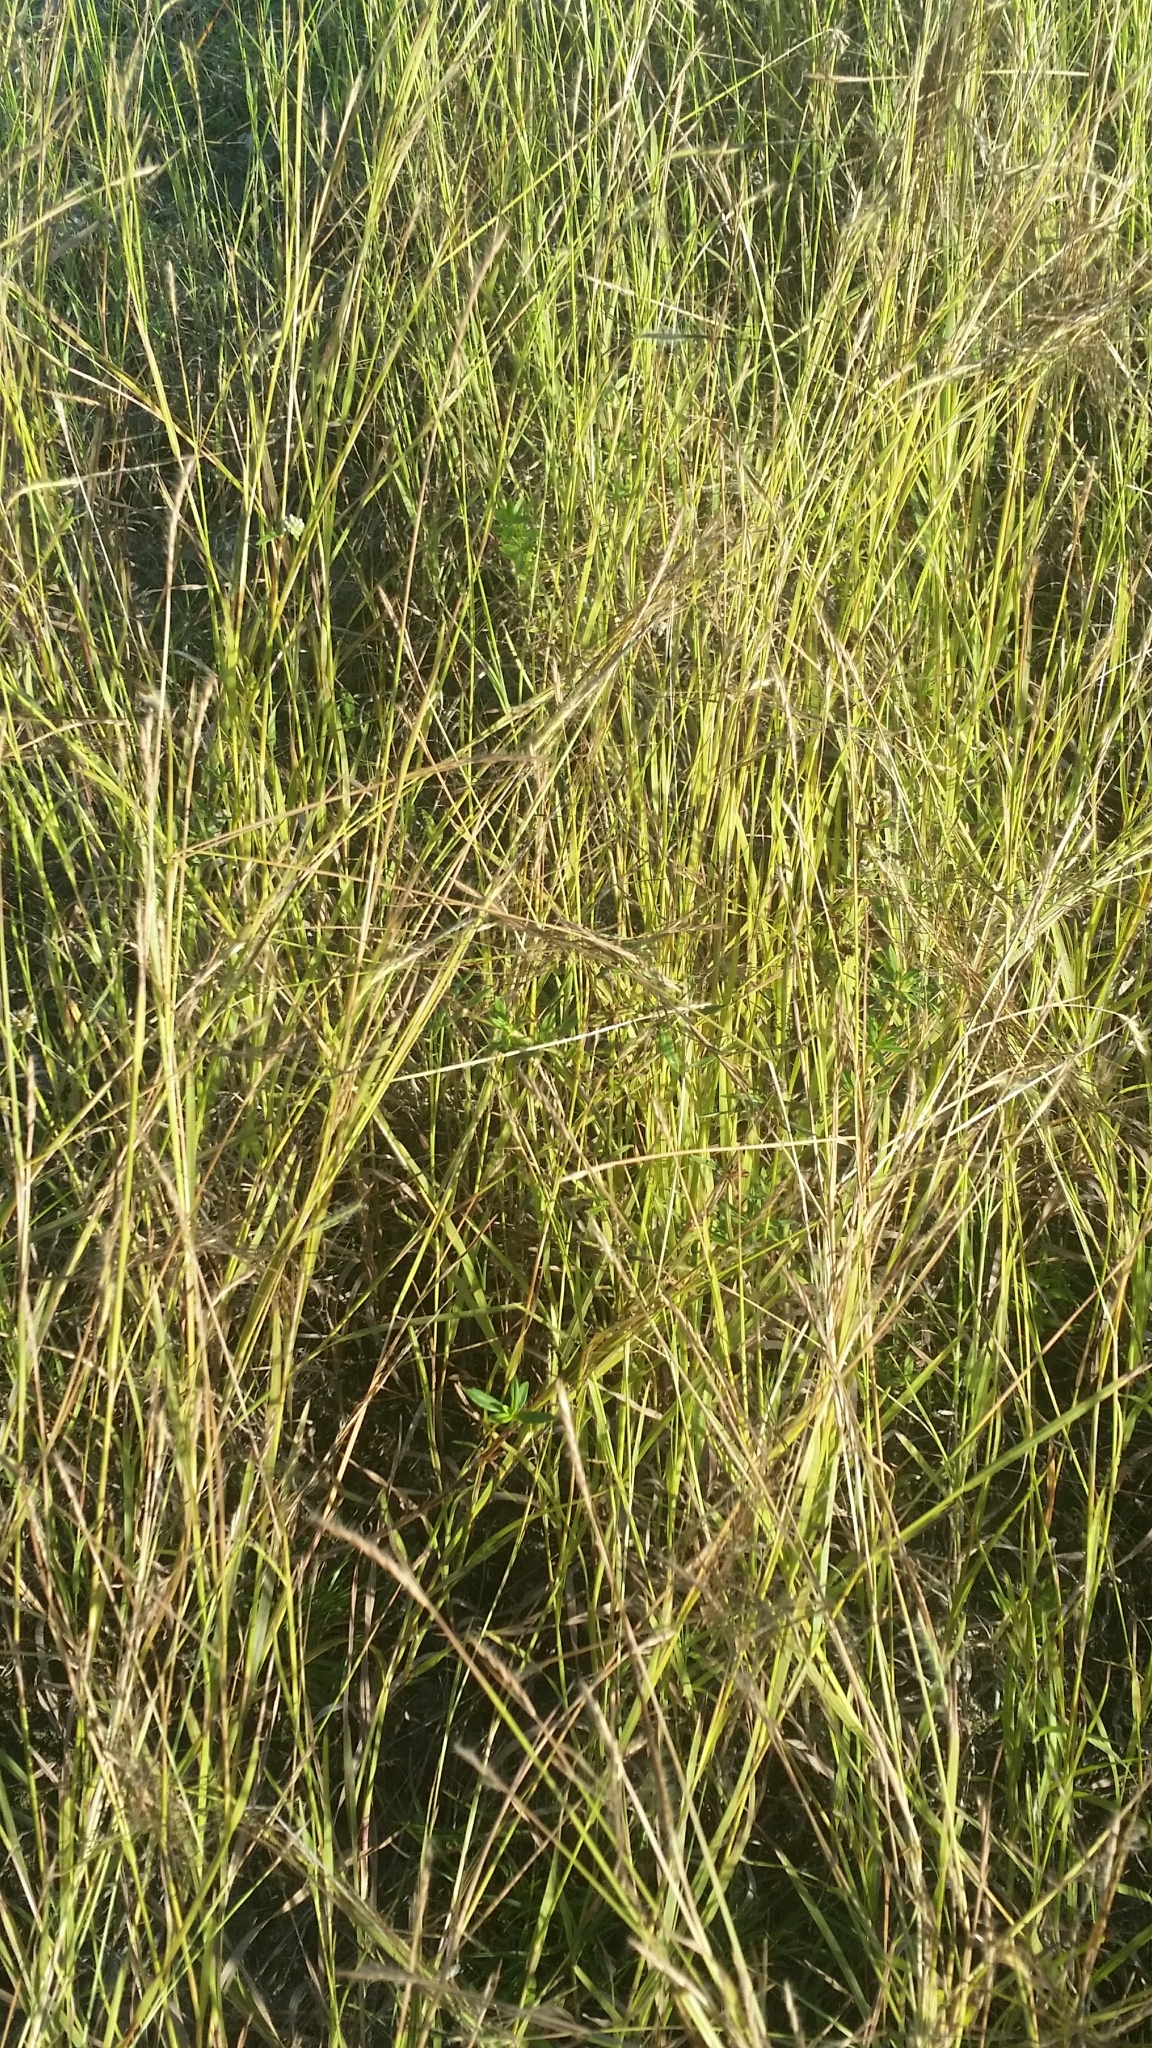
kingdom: Plantae
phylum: Tracheophyta
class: Liliopsida
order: Poales
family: Poaceae
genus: Heteropogon
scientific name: Heteropogon contortus
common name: Tanglehead
